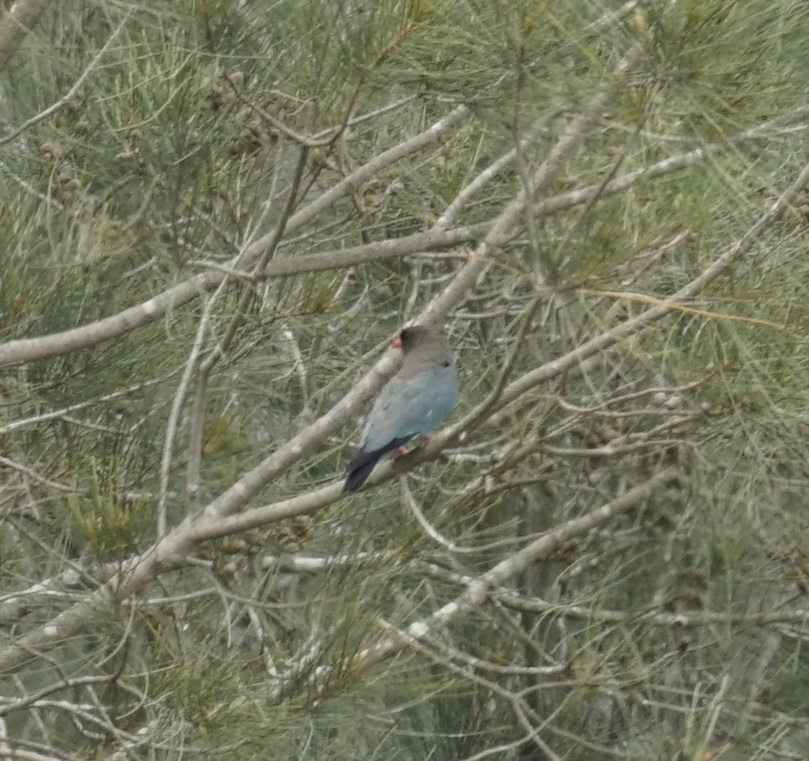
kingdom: Animalia
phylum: Chordata
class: Aves
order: Coraciiformes
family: Coraciidae
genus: Eurystomus
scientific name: Eurystomus orientalis
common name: Oriental dollarbird
